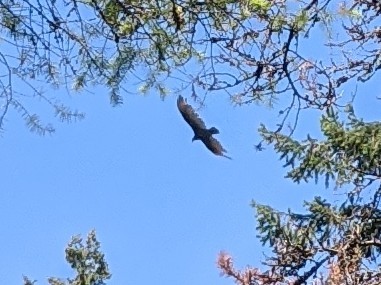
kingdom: Animalia
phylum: Chordata
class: Aves
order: Accipitriformes
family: Cathartidae
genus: Cathartes
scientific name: Cathartes aura
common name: Turkey vulture
